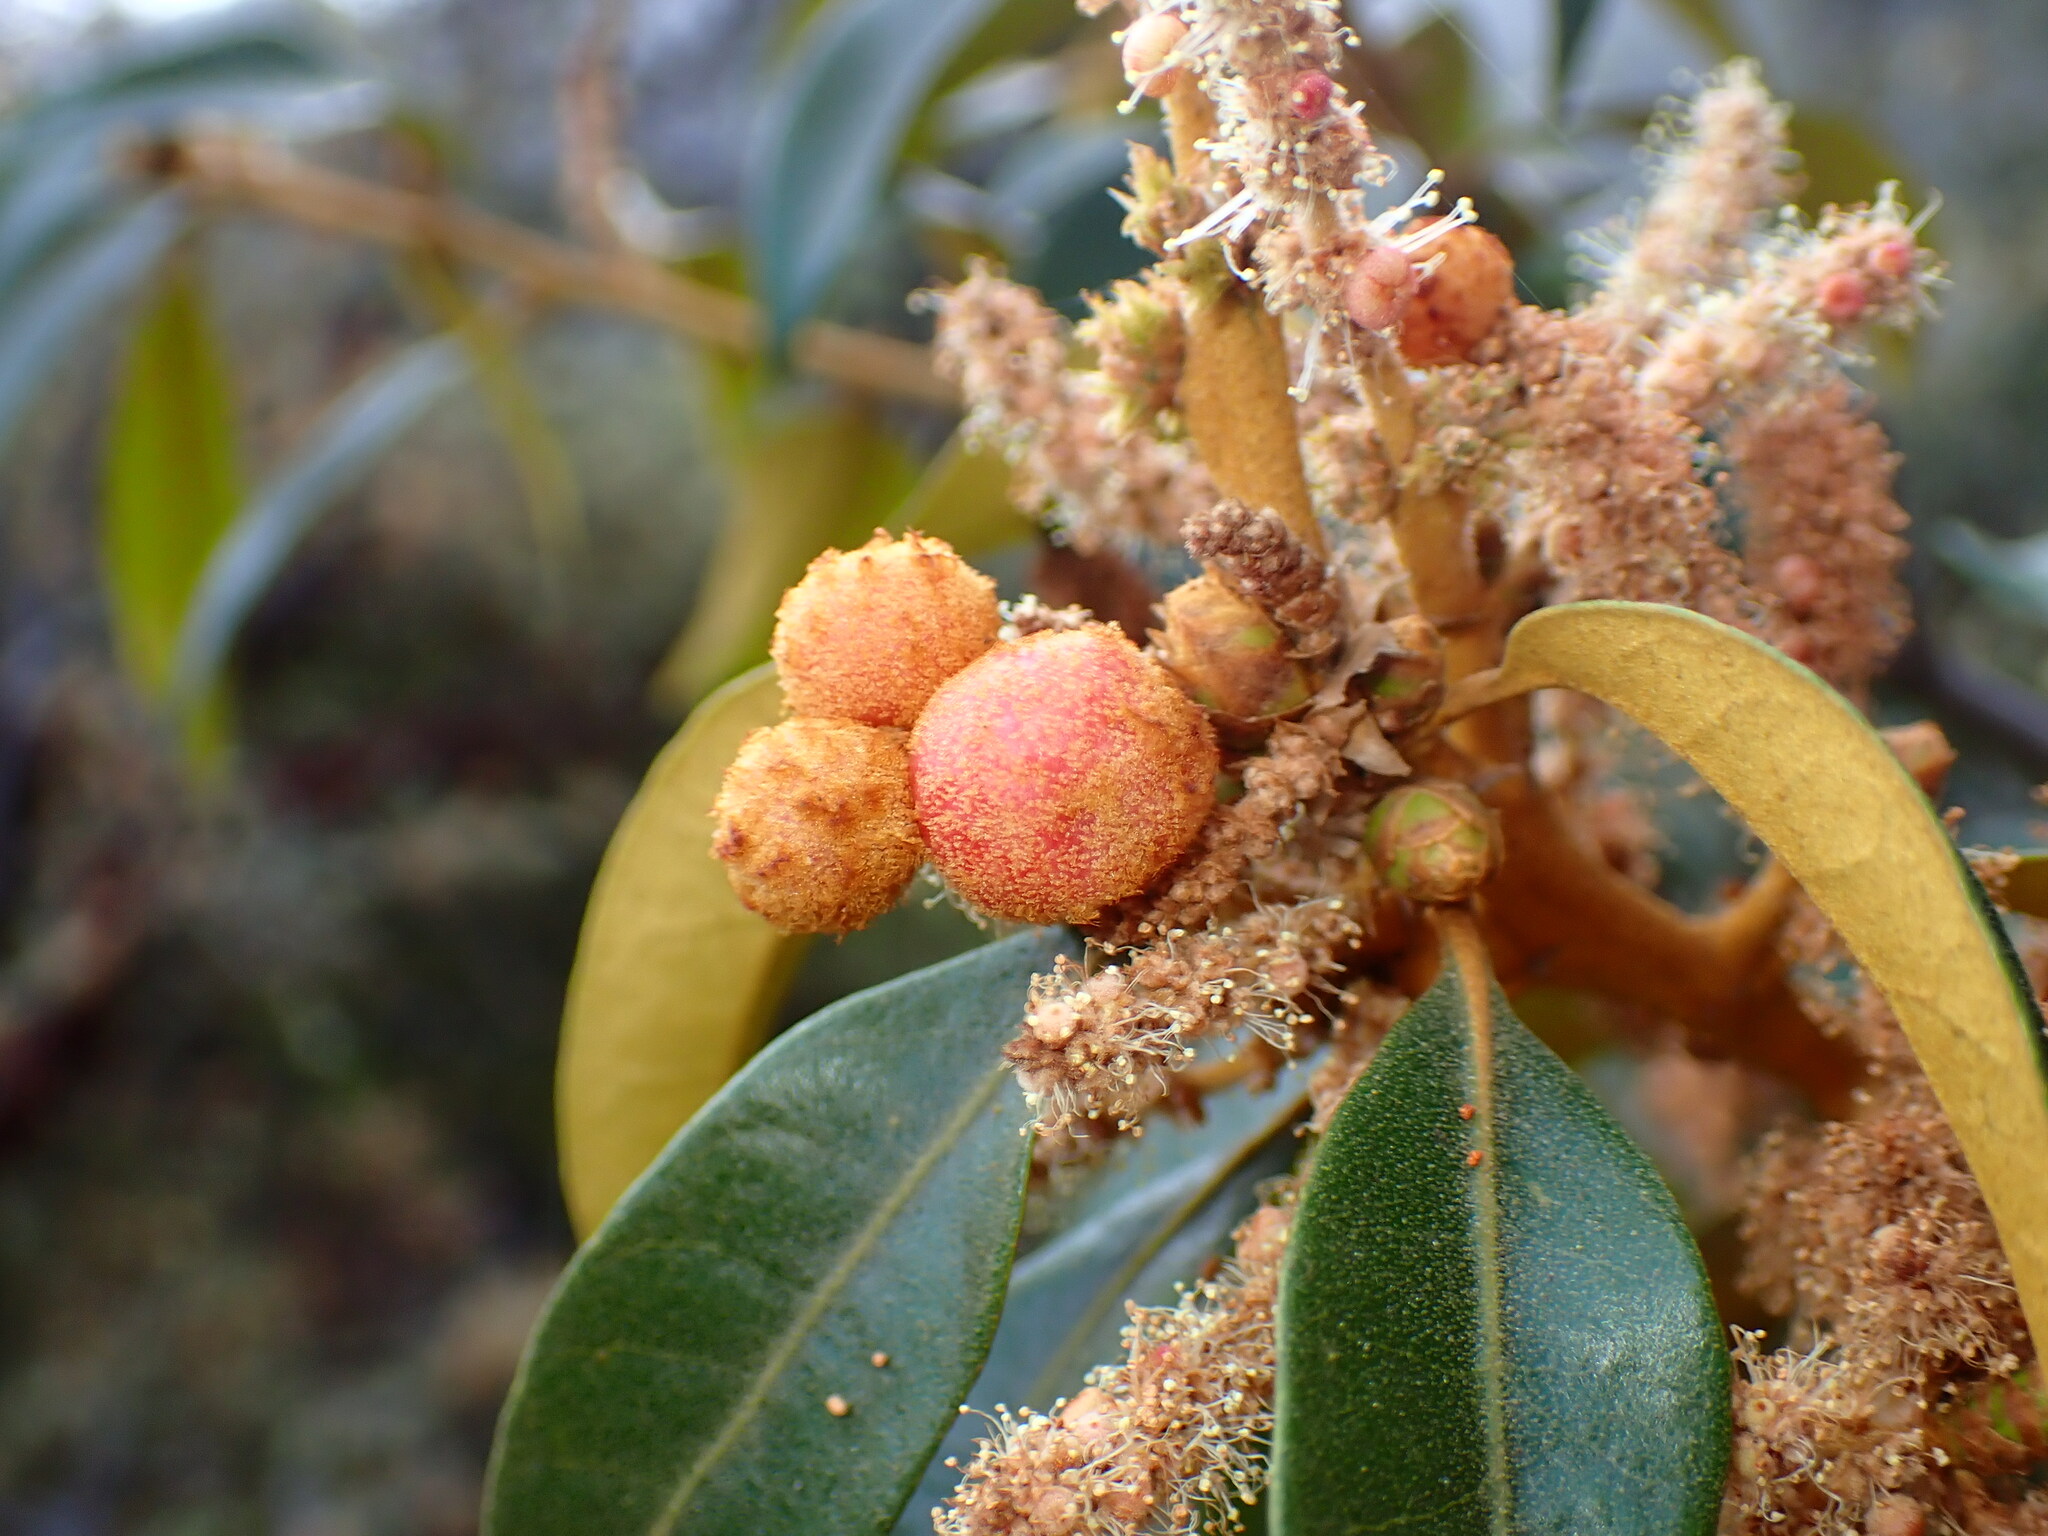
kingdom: Animalia
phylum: Arthropoda
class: Insecta
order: Hymenoptera
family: Cynipidae
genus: Synergus
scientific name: Synergus castanopsidis
